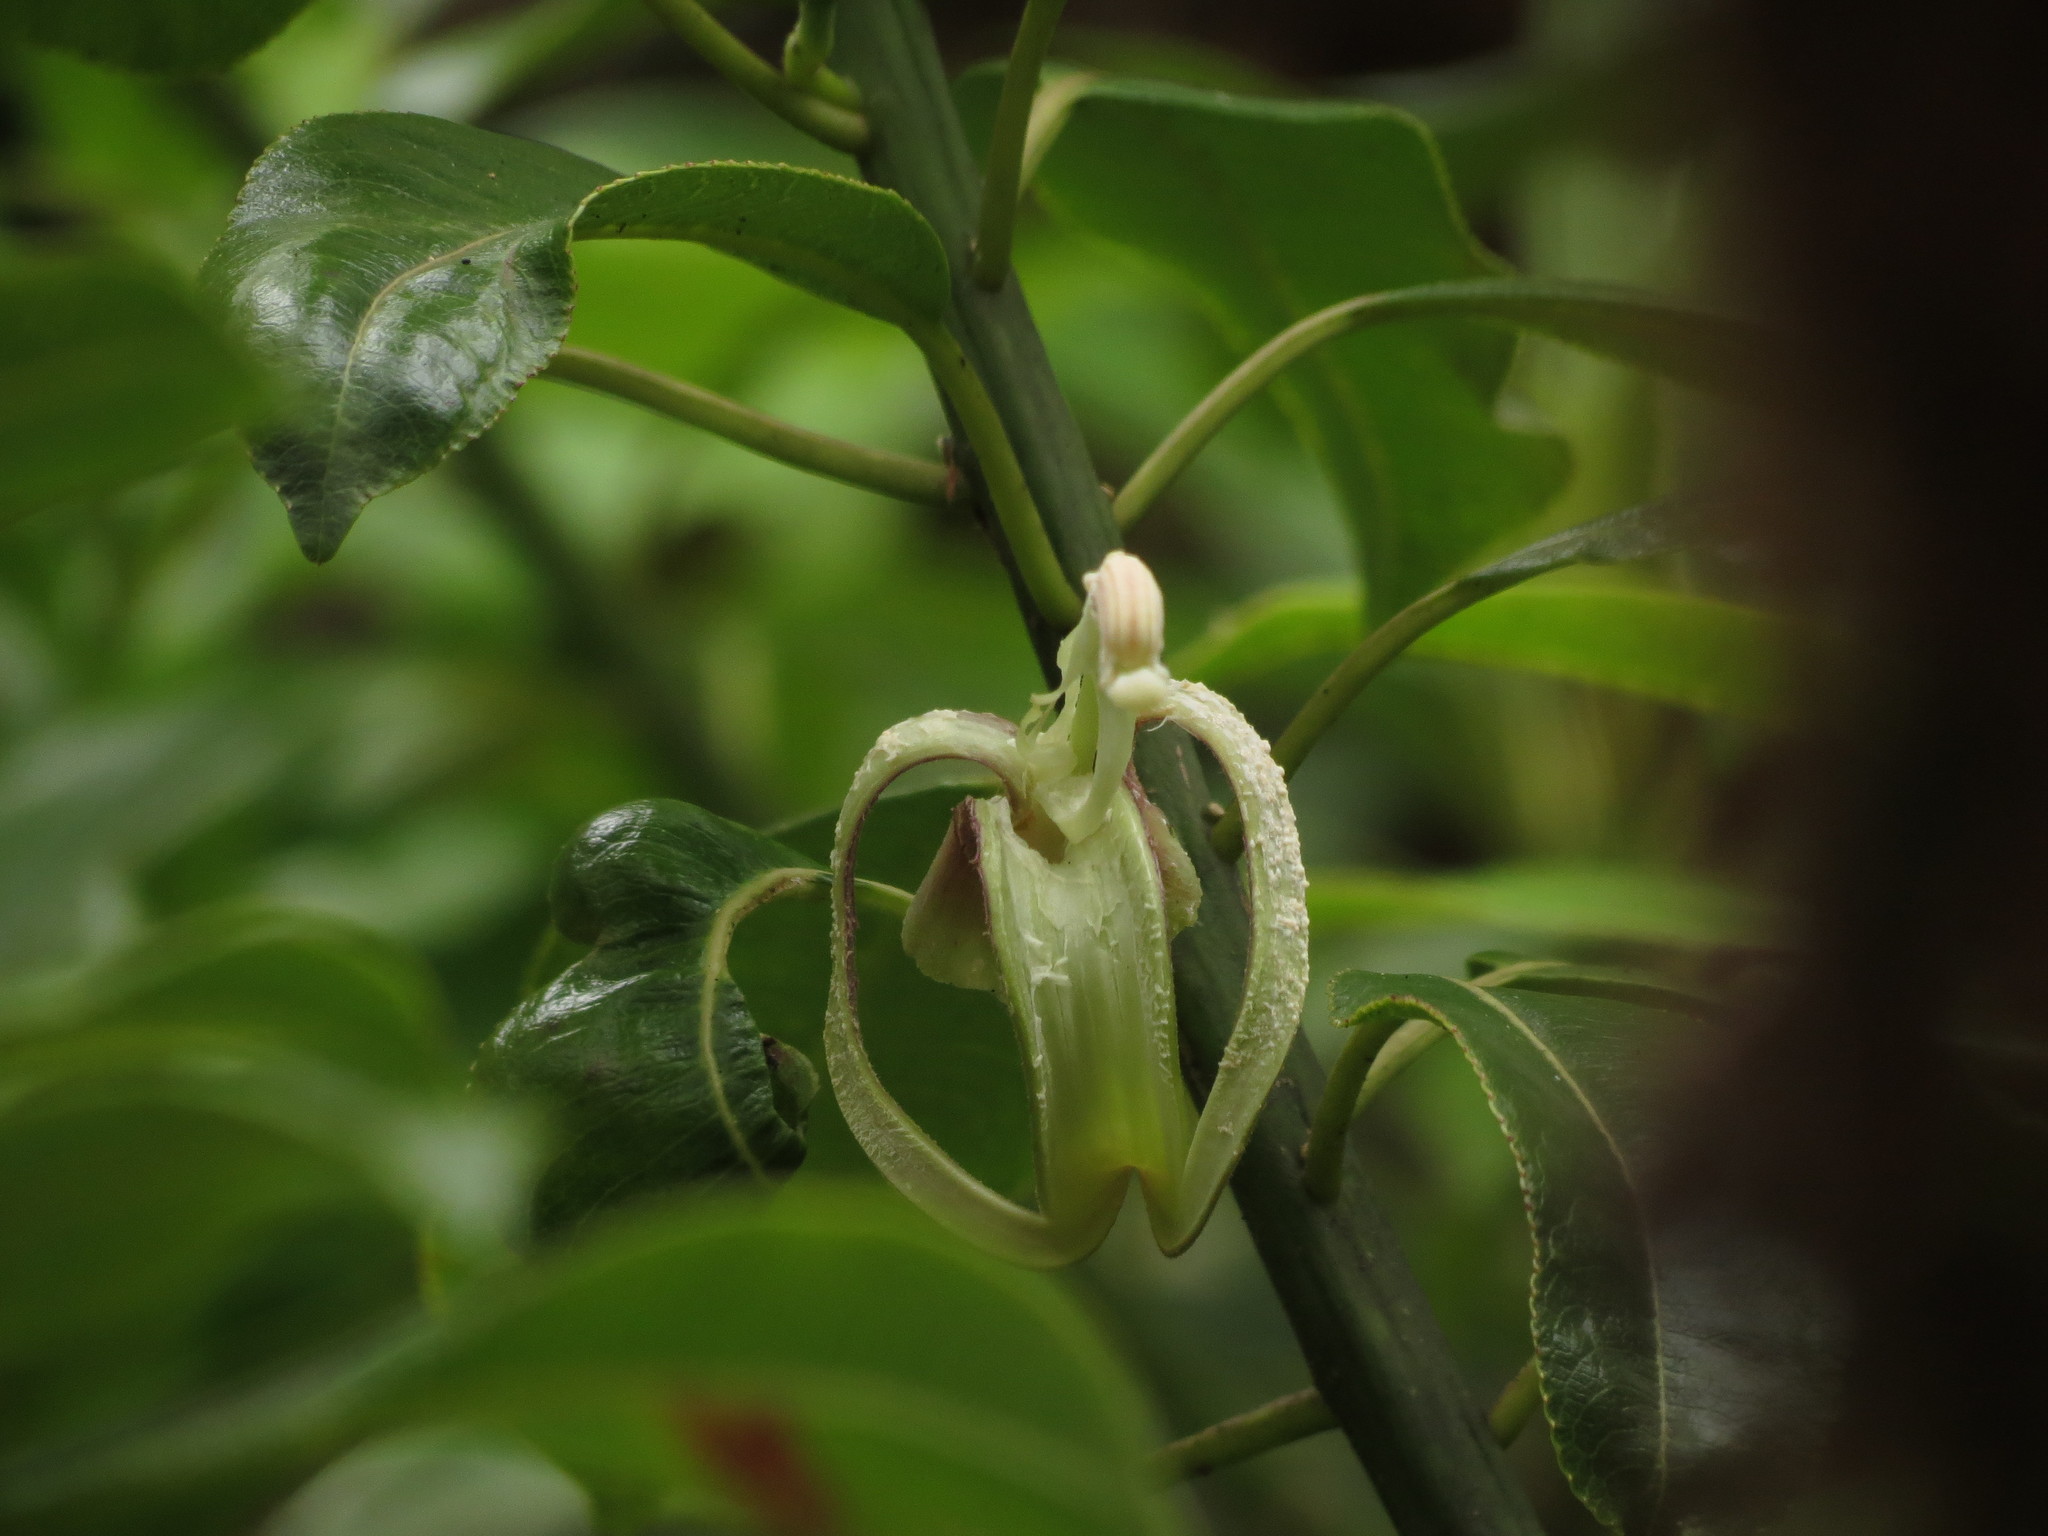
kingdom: Plantae
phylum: Tracheophyta
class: Magnoliopsida
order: Asterales
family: Campanulaceae
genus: Clermontia
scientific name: Clermontia fauriei
